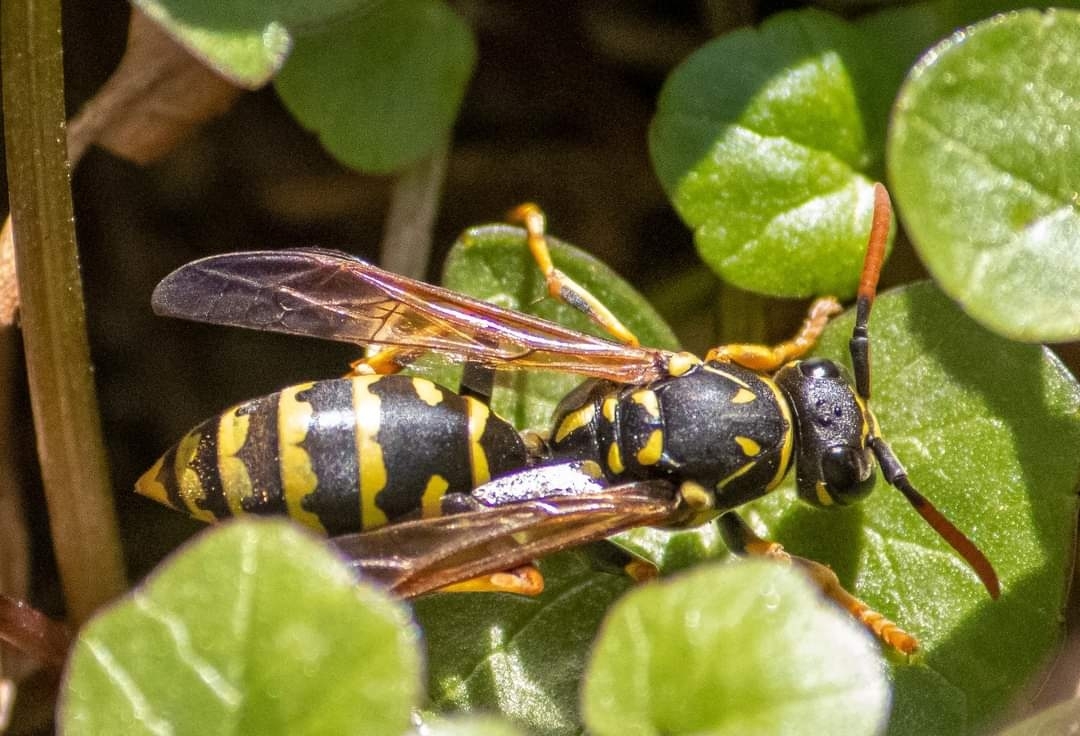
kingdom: Animalia
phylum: Arthropoda
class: Insecta
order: Hymenoptera
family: Eumenidae
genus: Polistes
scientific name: Polistes dominula
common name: Paper wasp
